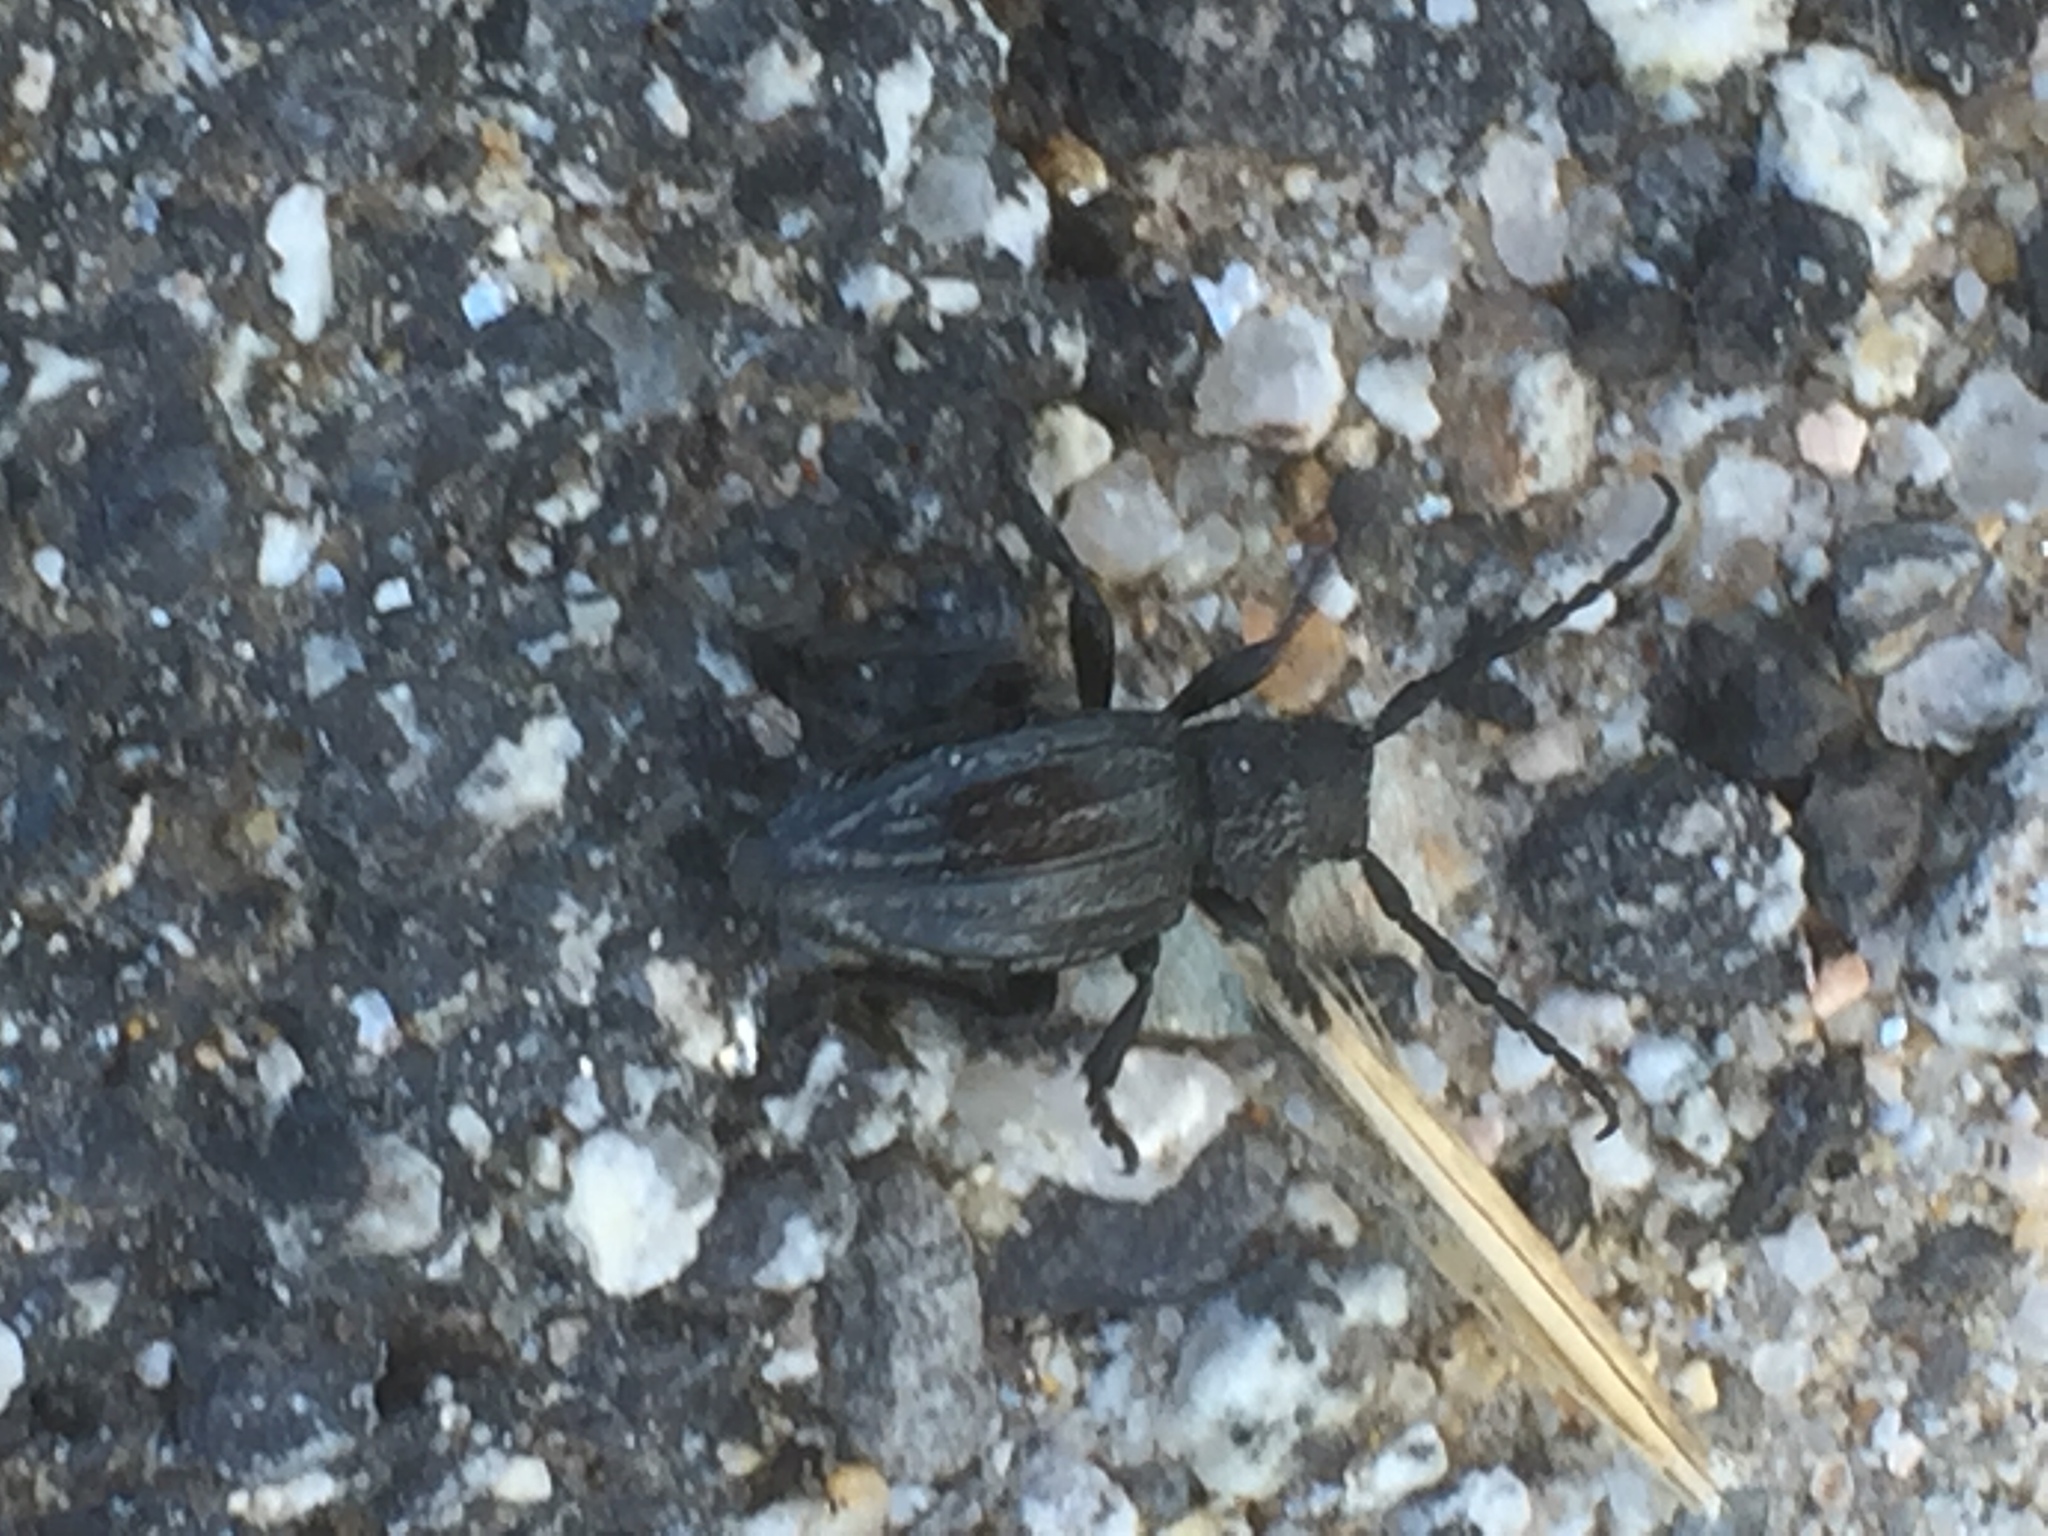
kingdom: Animalia
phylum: Arthropoda
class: Insecta
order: Coleoptera
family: Cerambycidae
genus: Iberodorcadion
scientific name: Iberodorcadion brannani
